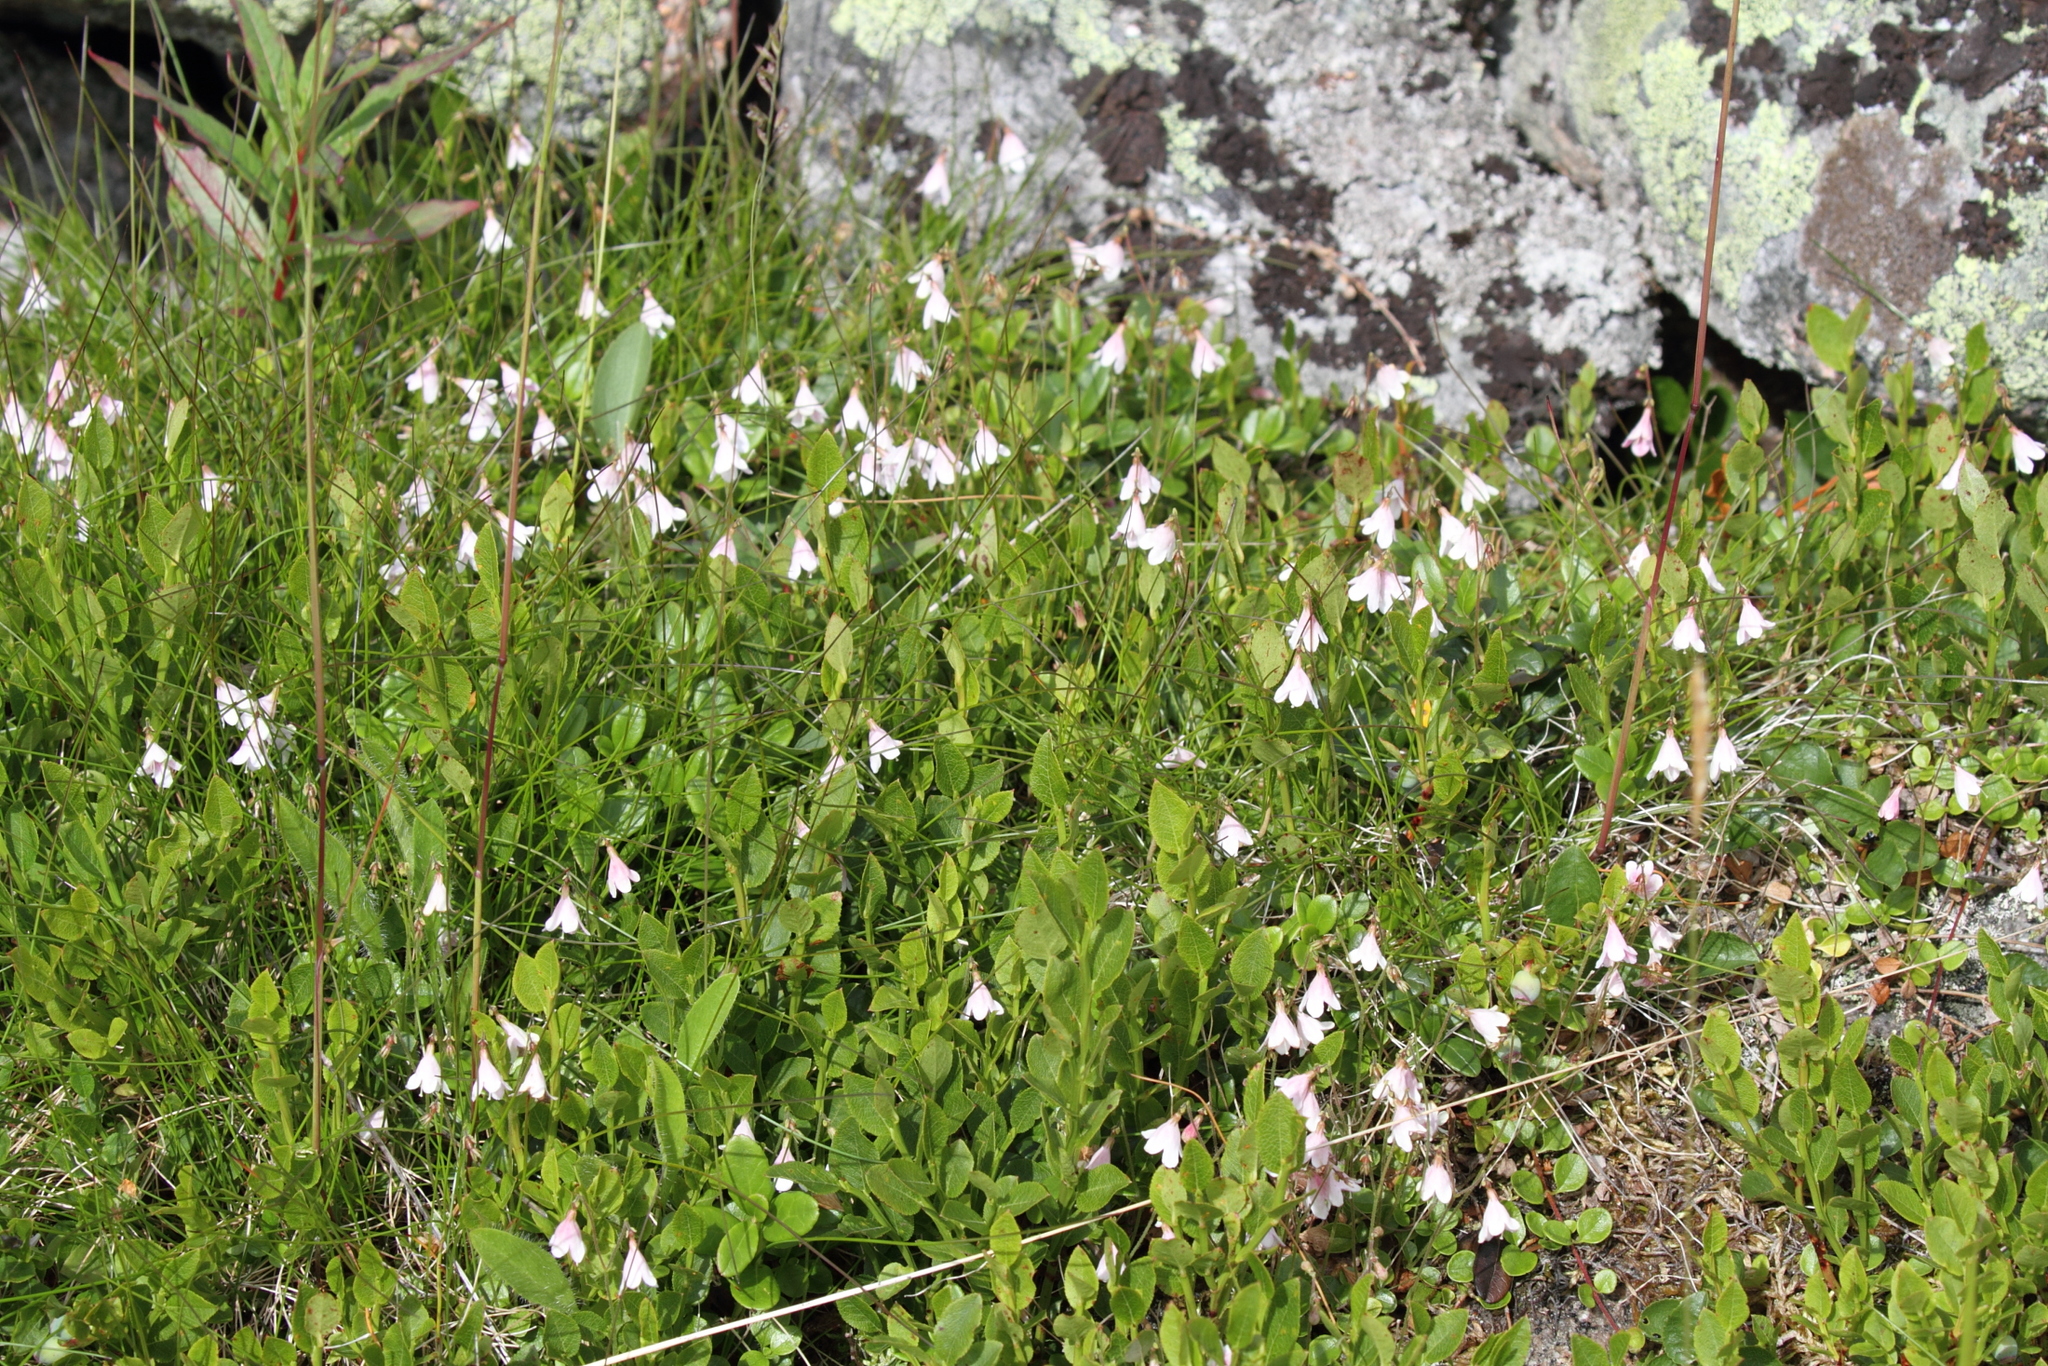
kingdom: Plantae
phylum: Tracheophyta
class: Magnoliopsida
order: Dipsacales
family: Caprifoliaceae
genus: Linnaea
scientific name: Linnaea borealis
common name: Twinflower
